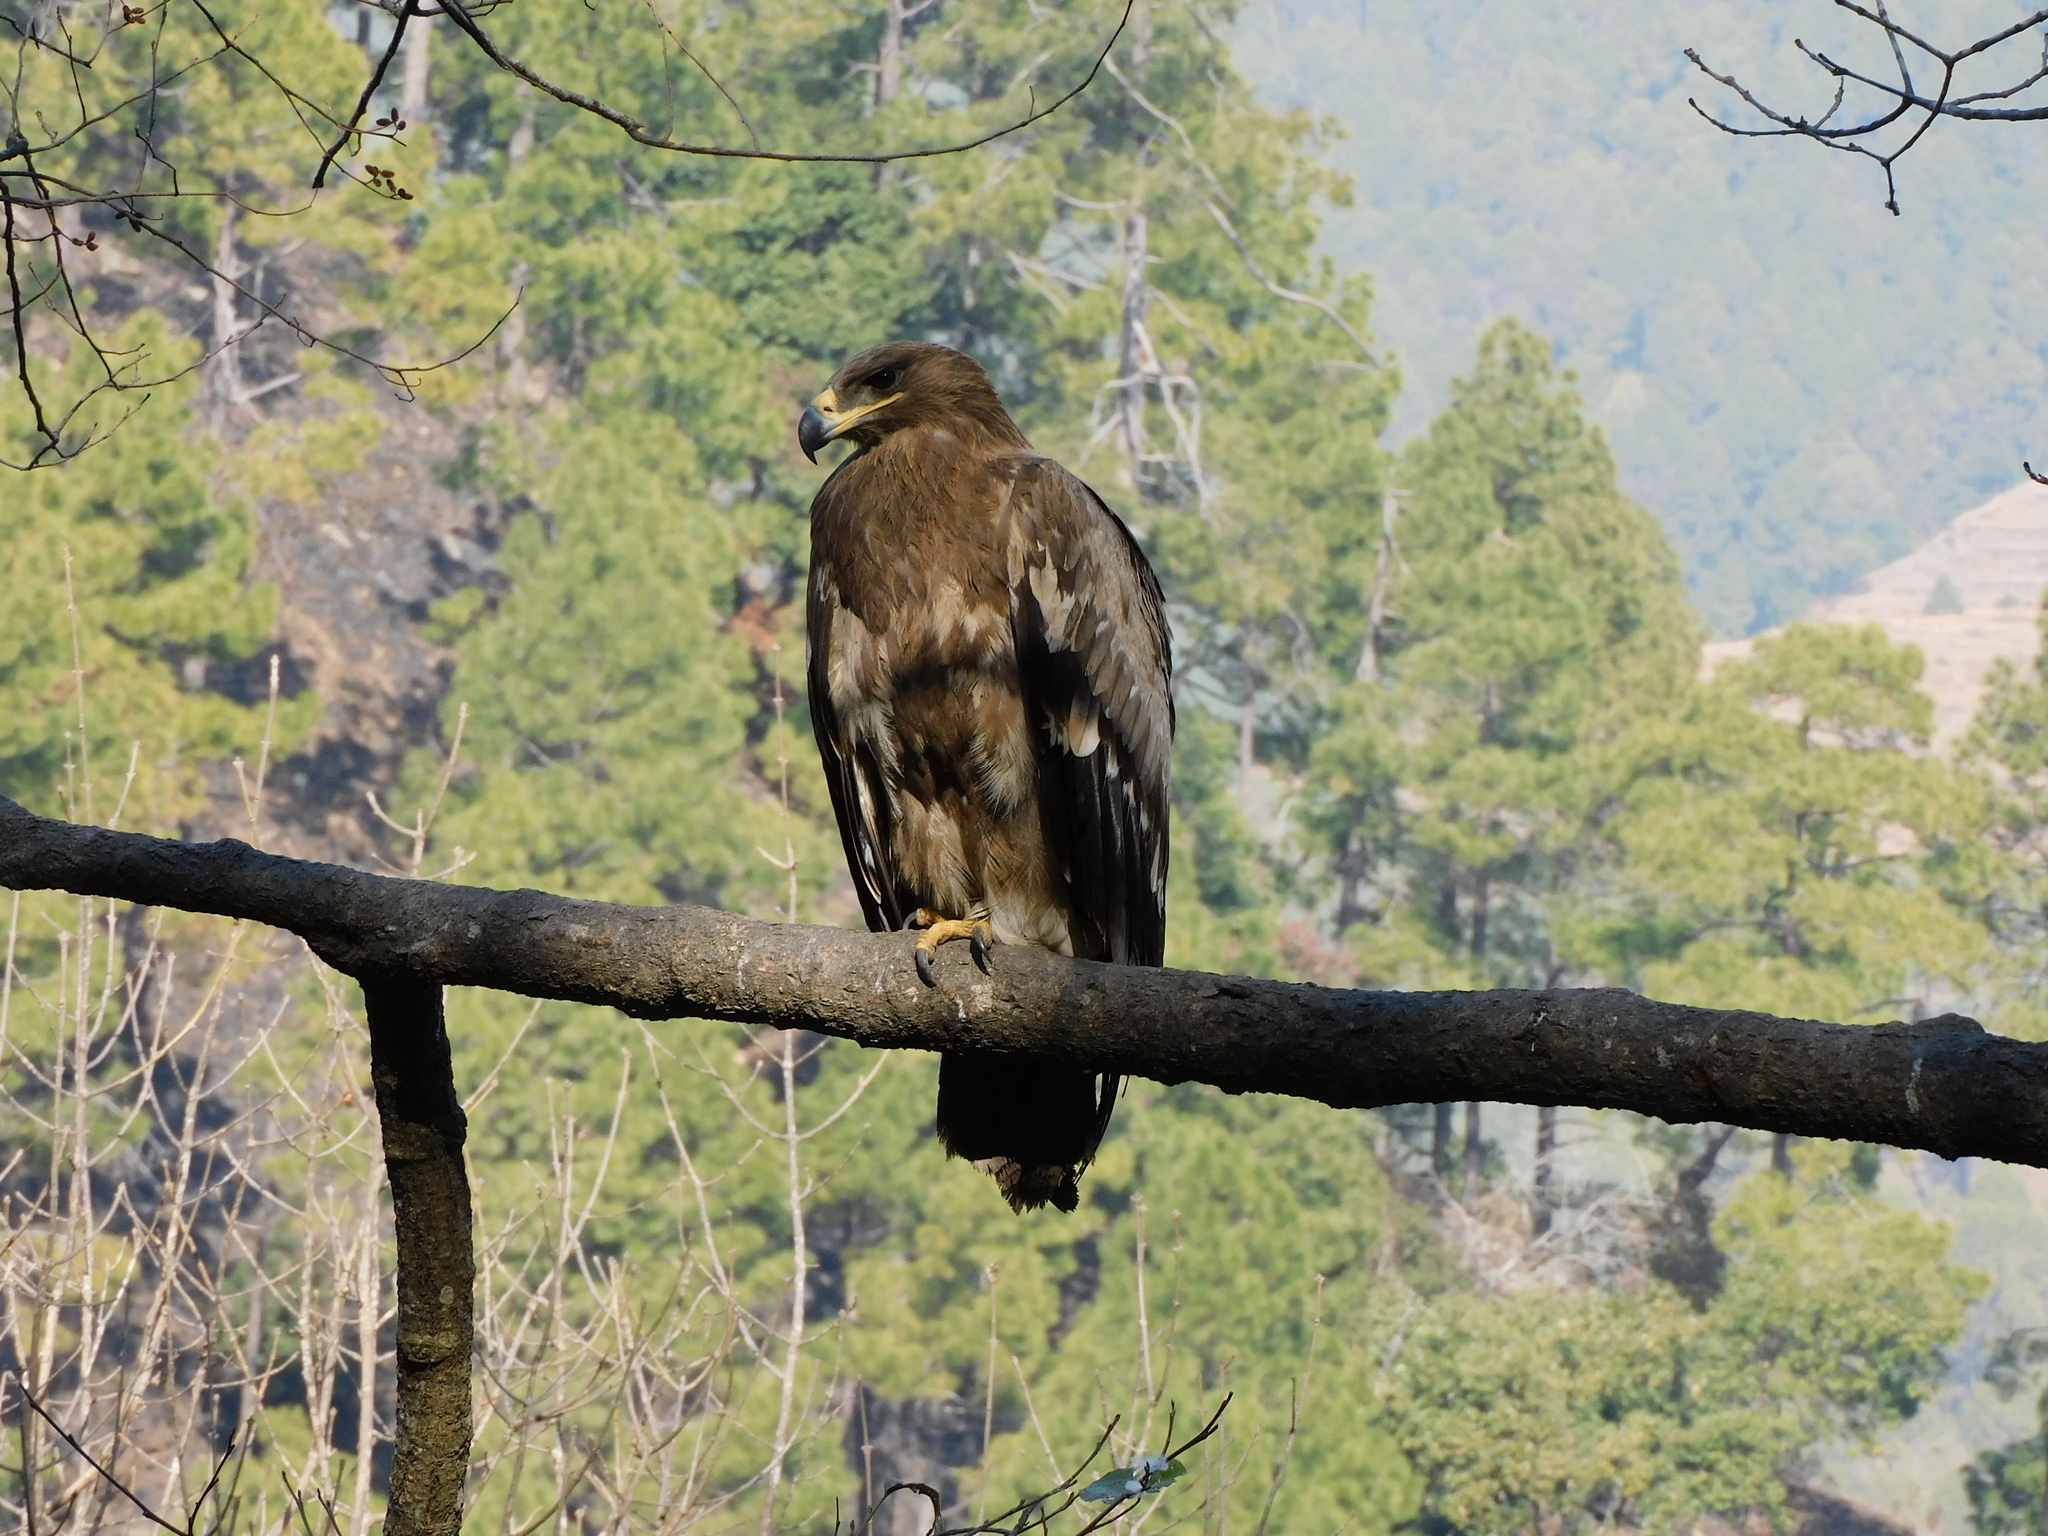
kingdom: Animalia
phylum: Chordata
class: Aves
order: Accipitriformes
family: Accipitridae
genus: Aquila
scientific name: Aquila nipalensis
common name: Steppe eagle
